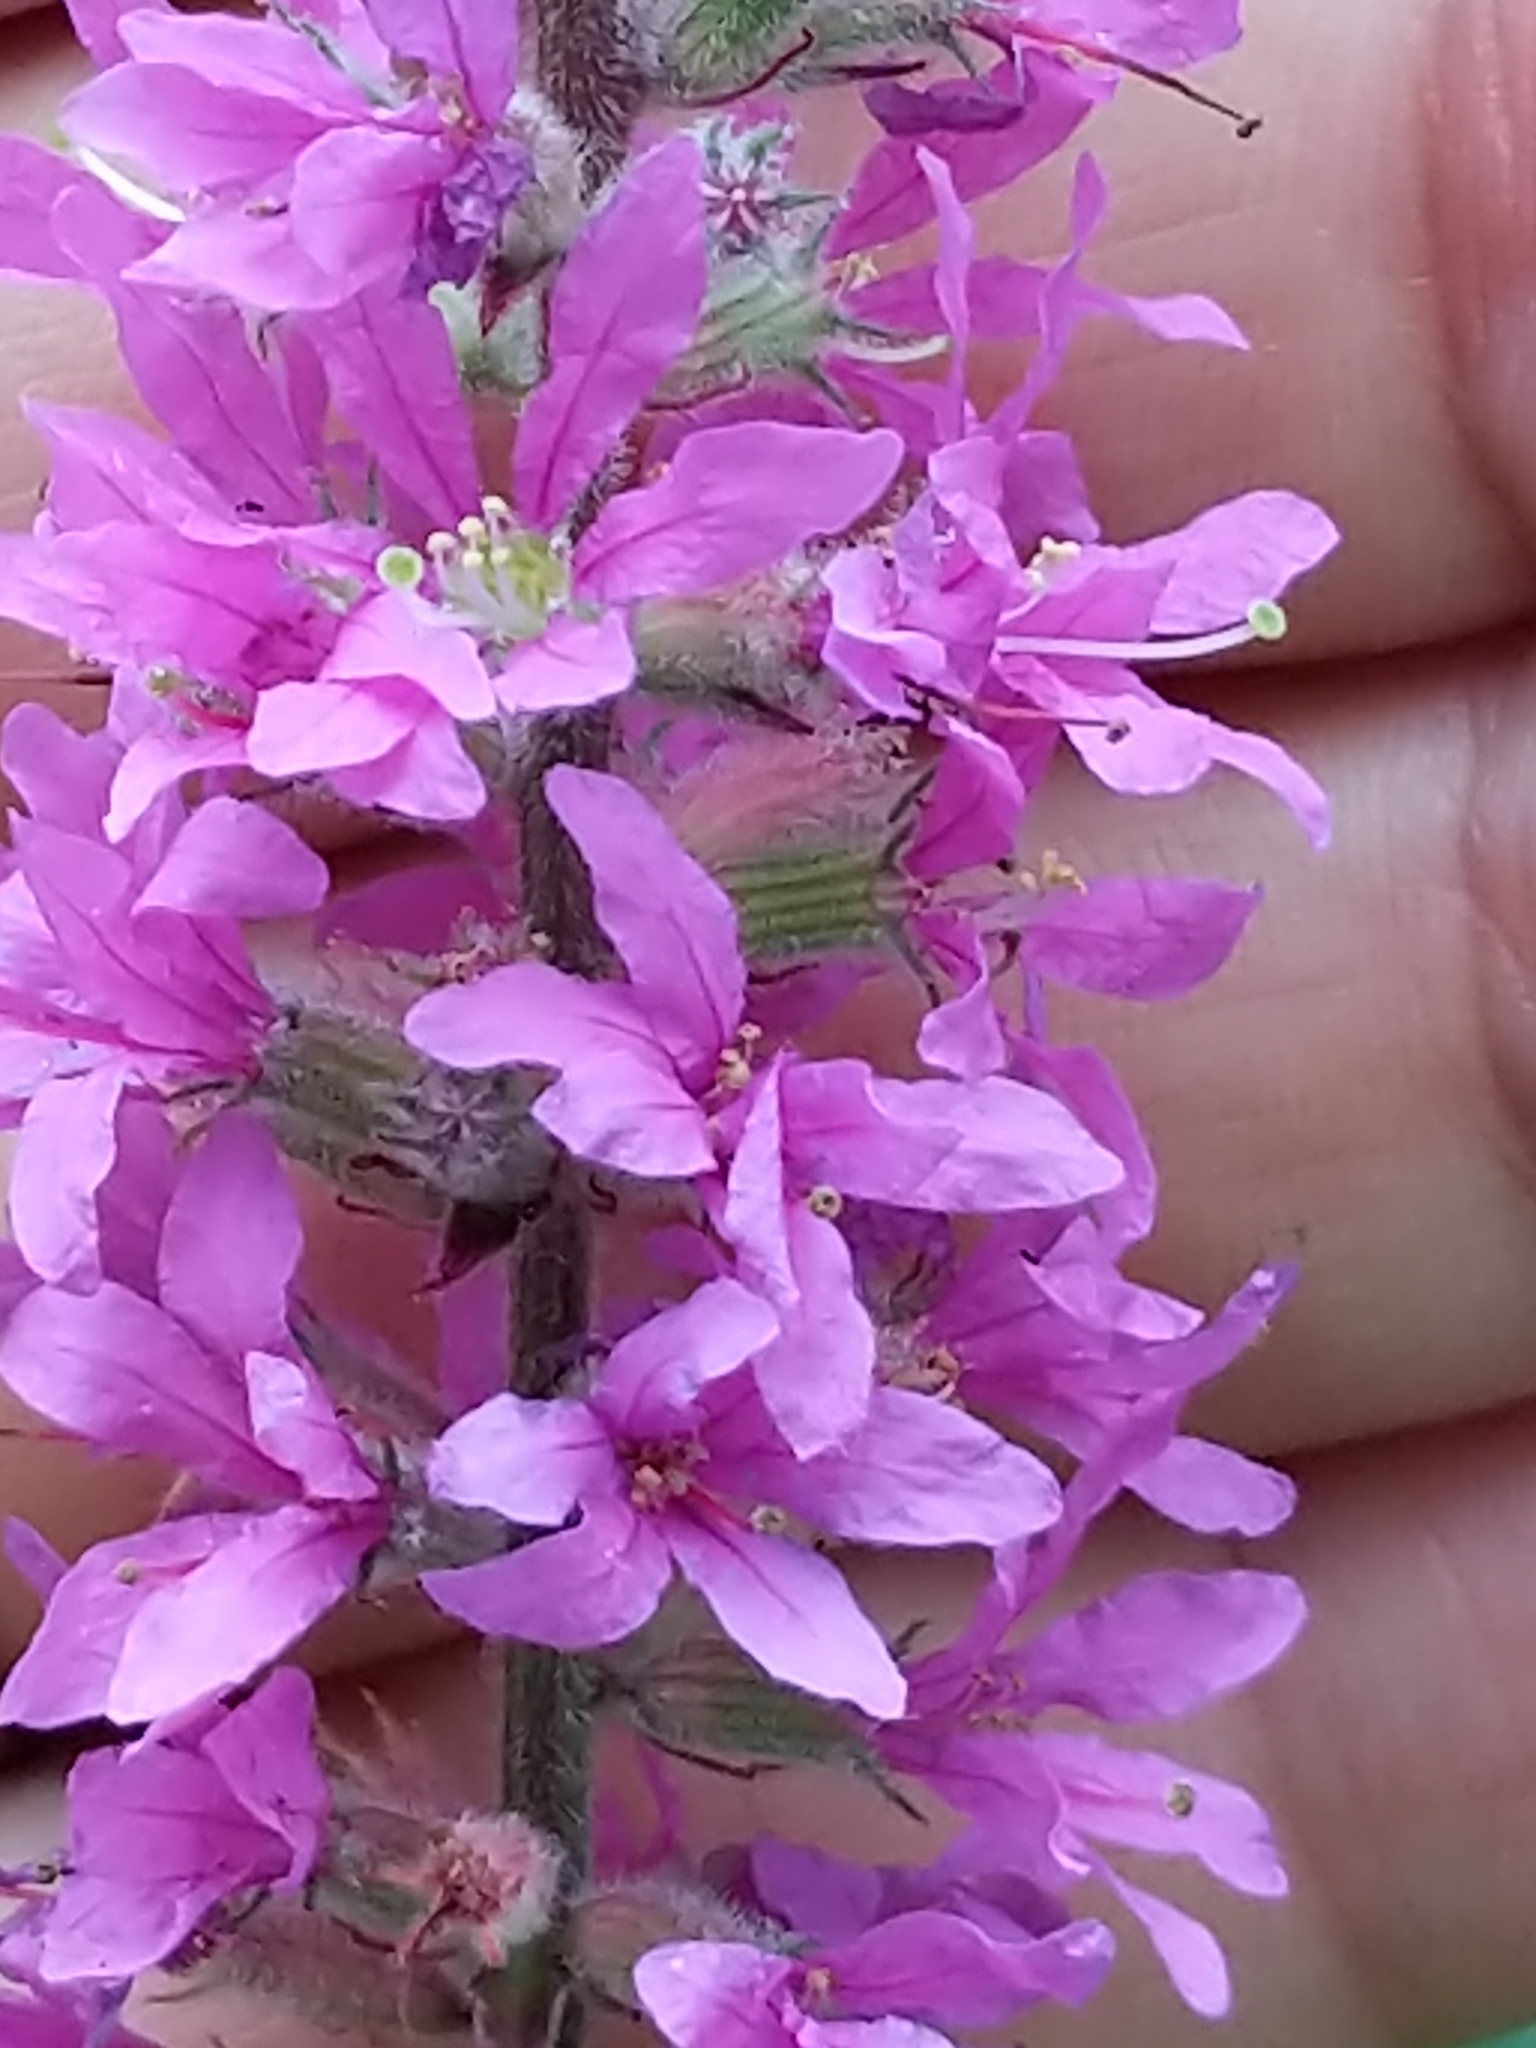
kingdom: Plantae
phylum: Tracheophyta
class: Magnoliopsida
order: Myrtales
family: Lythraceae
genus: Lythrum
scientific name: Lythrum salicaria
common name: Purple loosestrife
